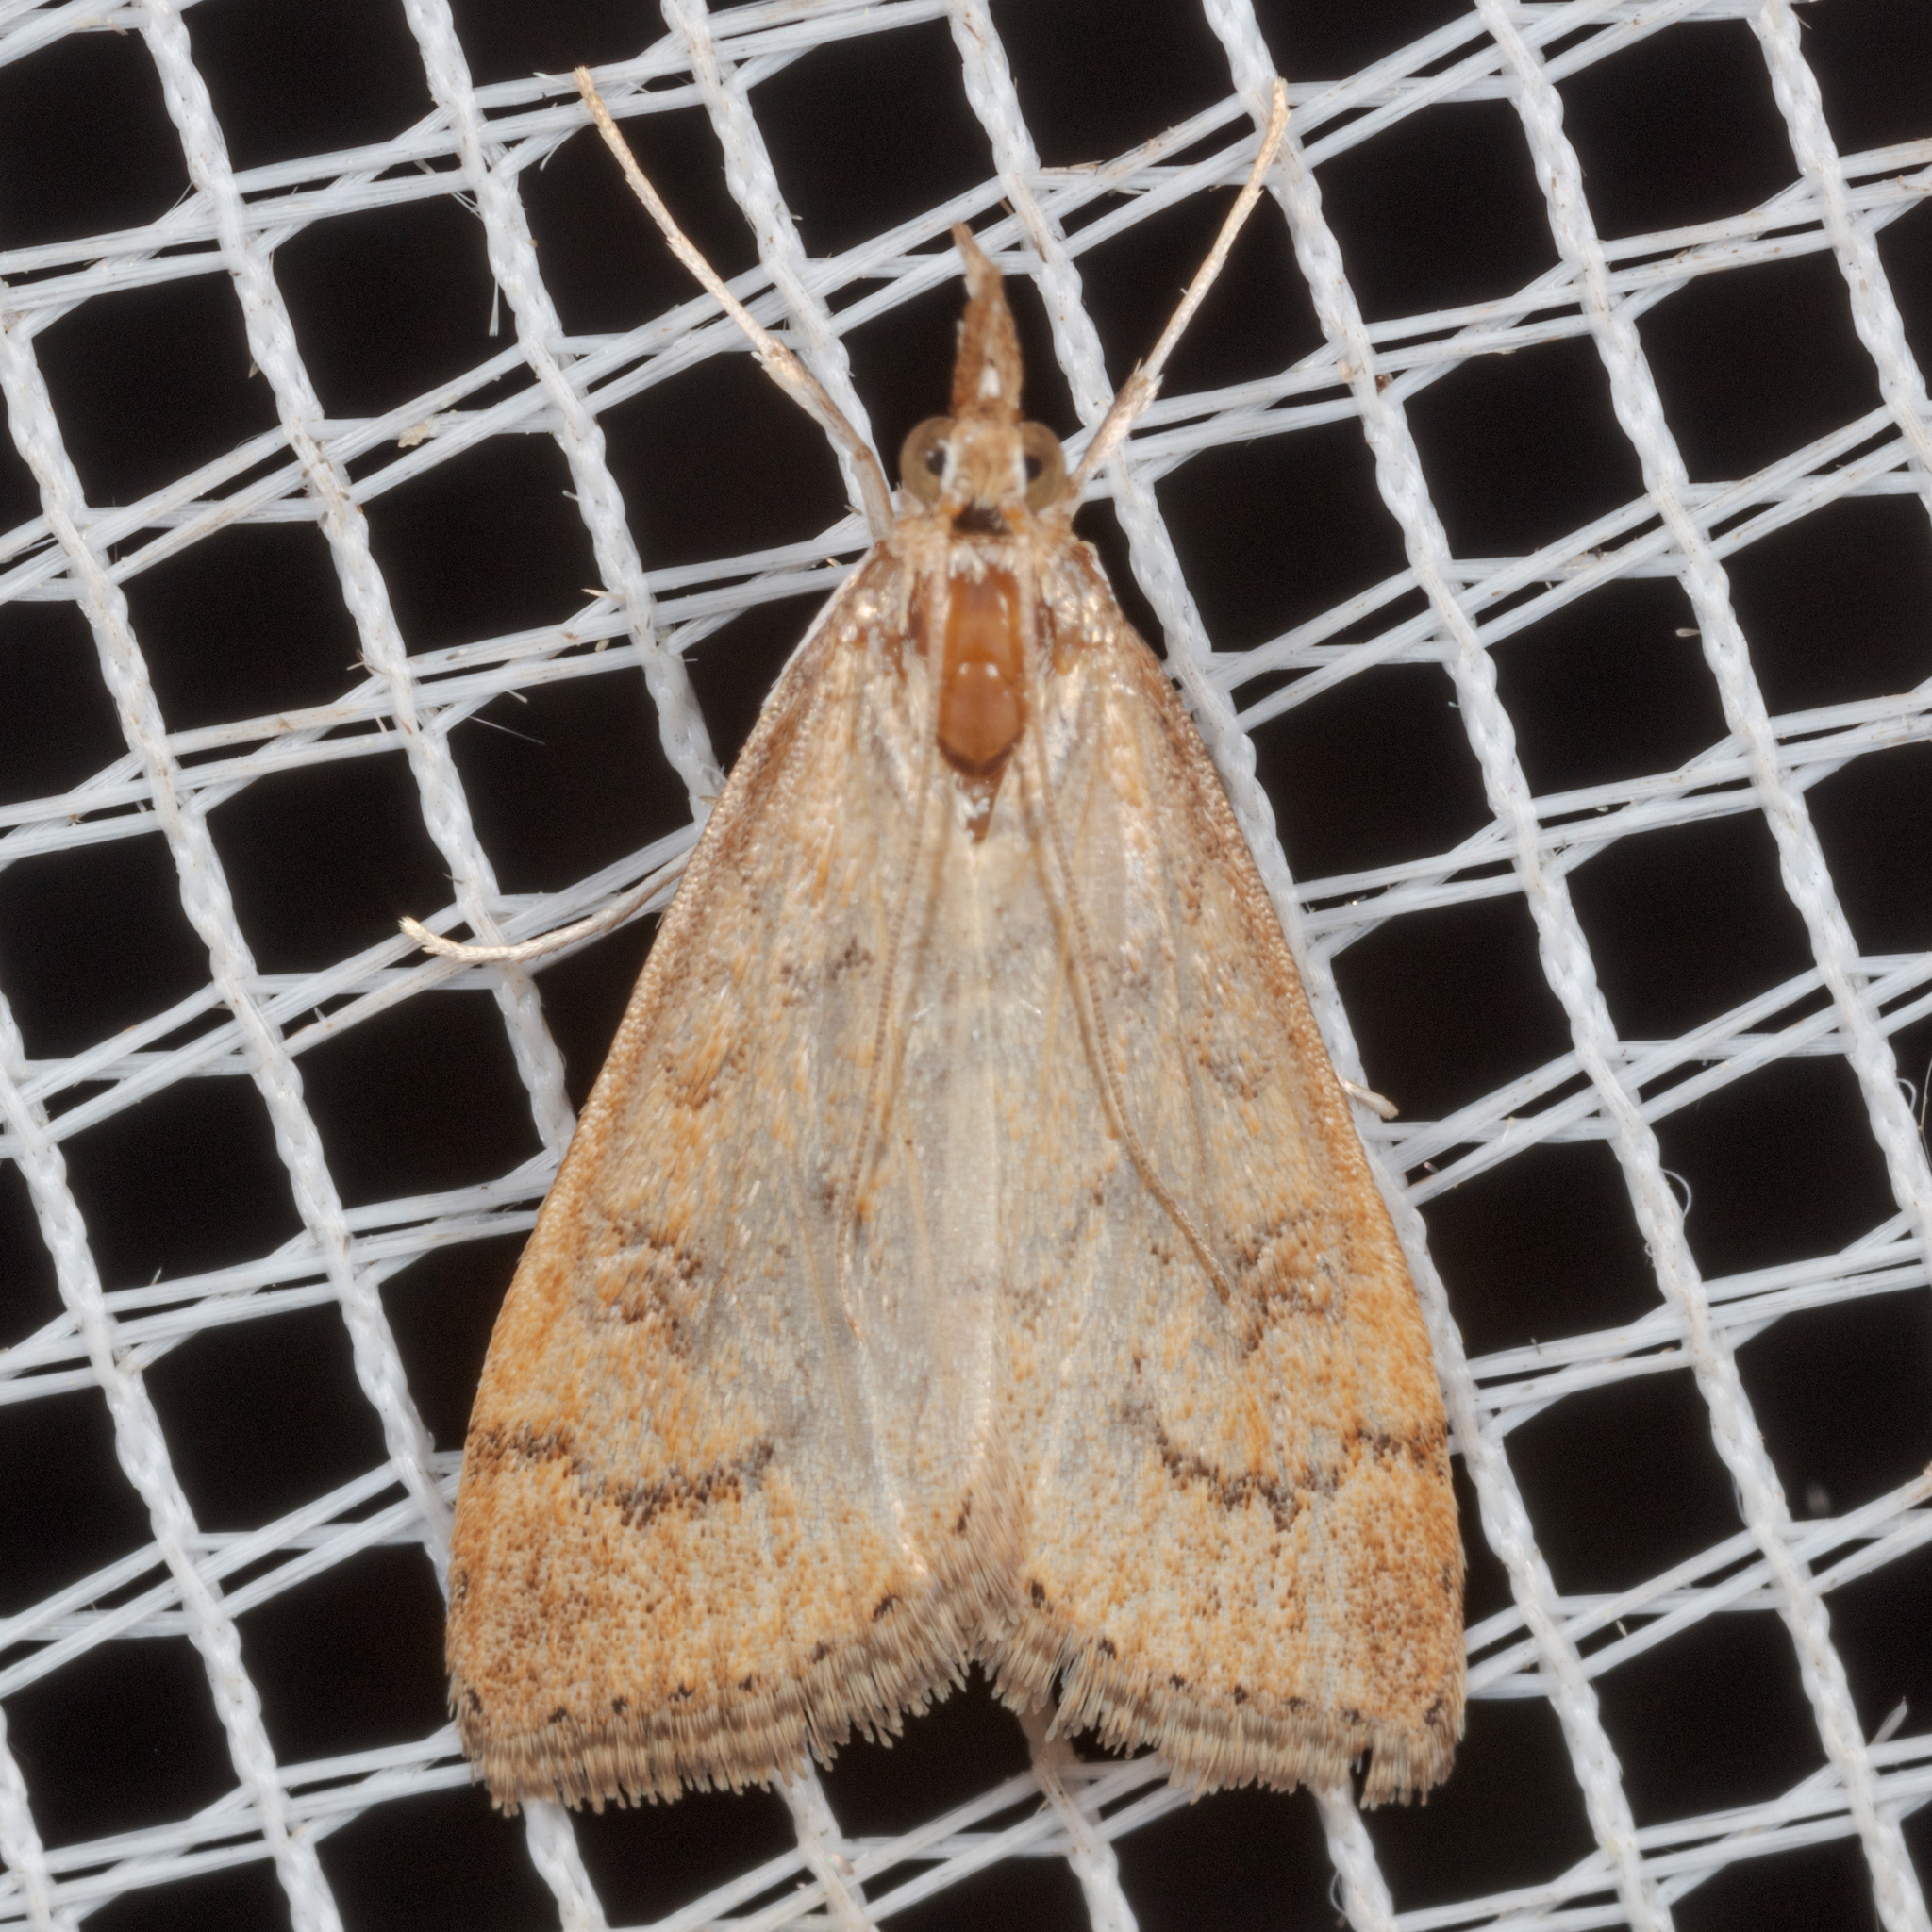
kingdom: Animalia
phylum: Arthropoda
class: Insecta
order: Lepidoptera
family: Crambidae
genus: Udea
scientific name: Udea rubigalis
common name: Celery leaftier moth
